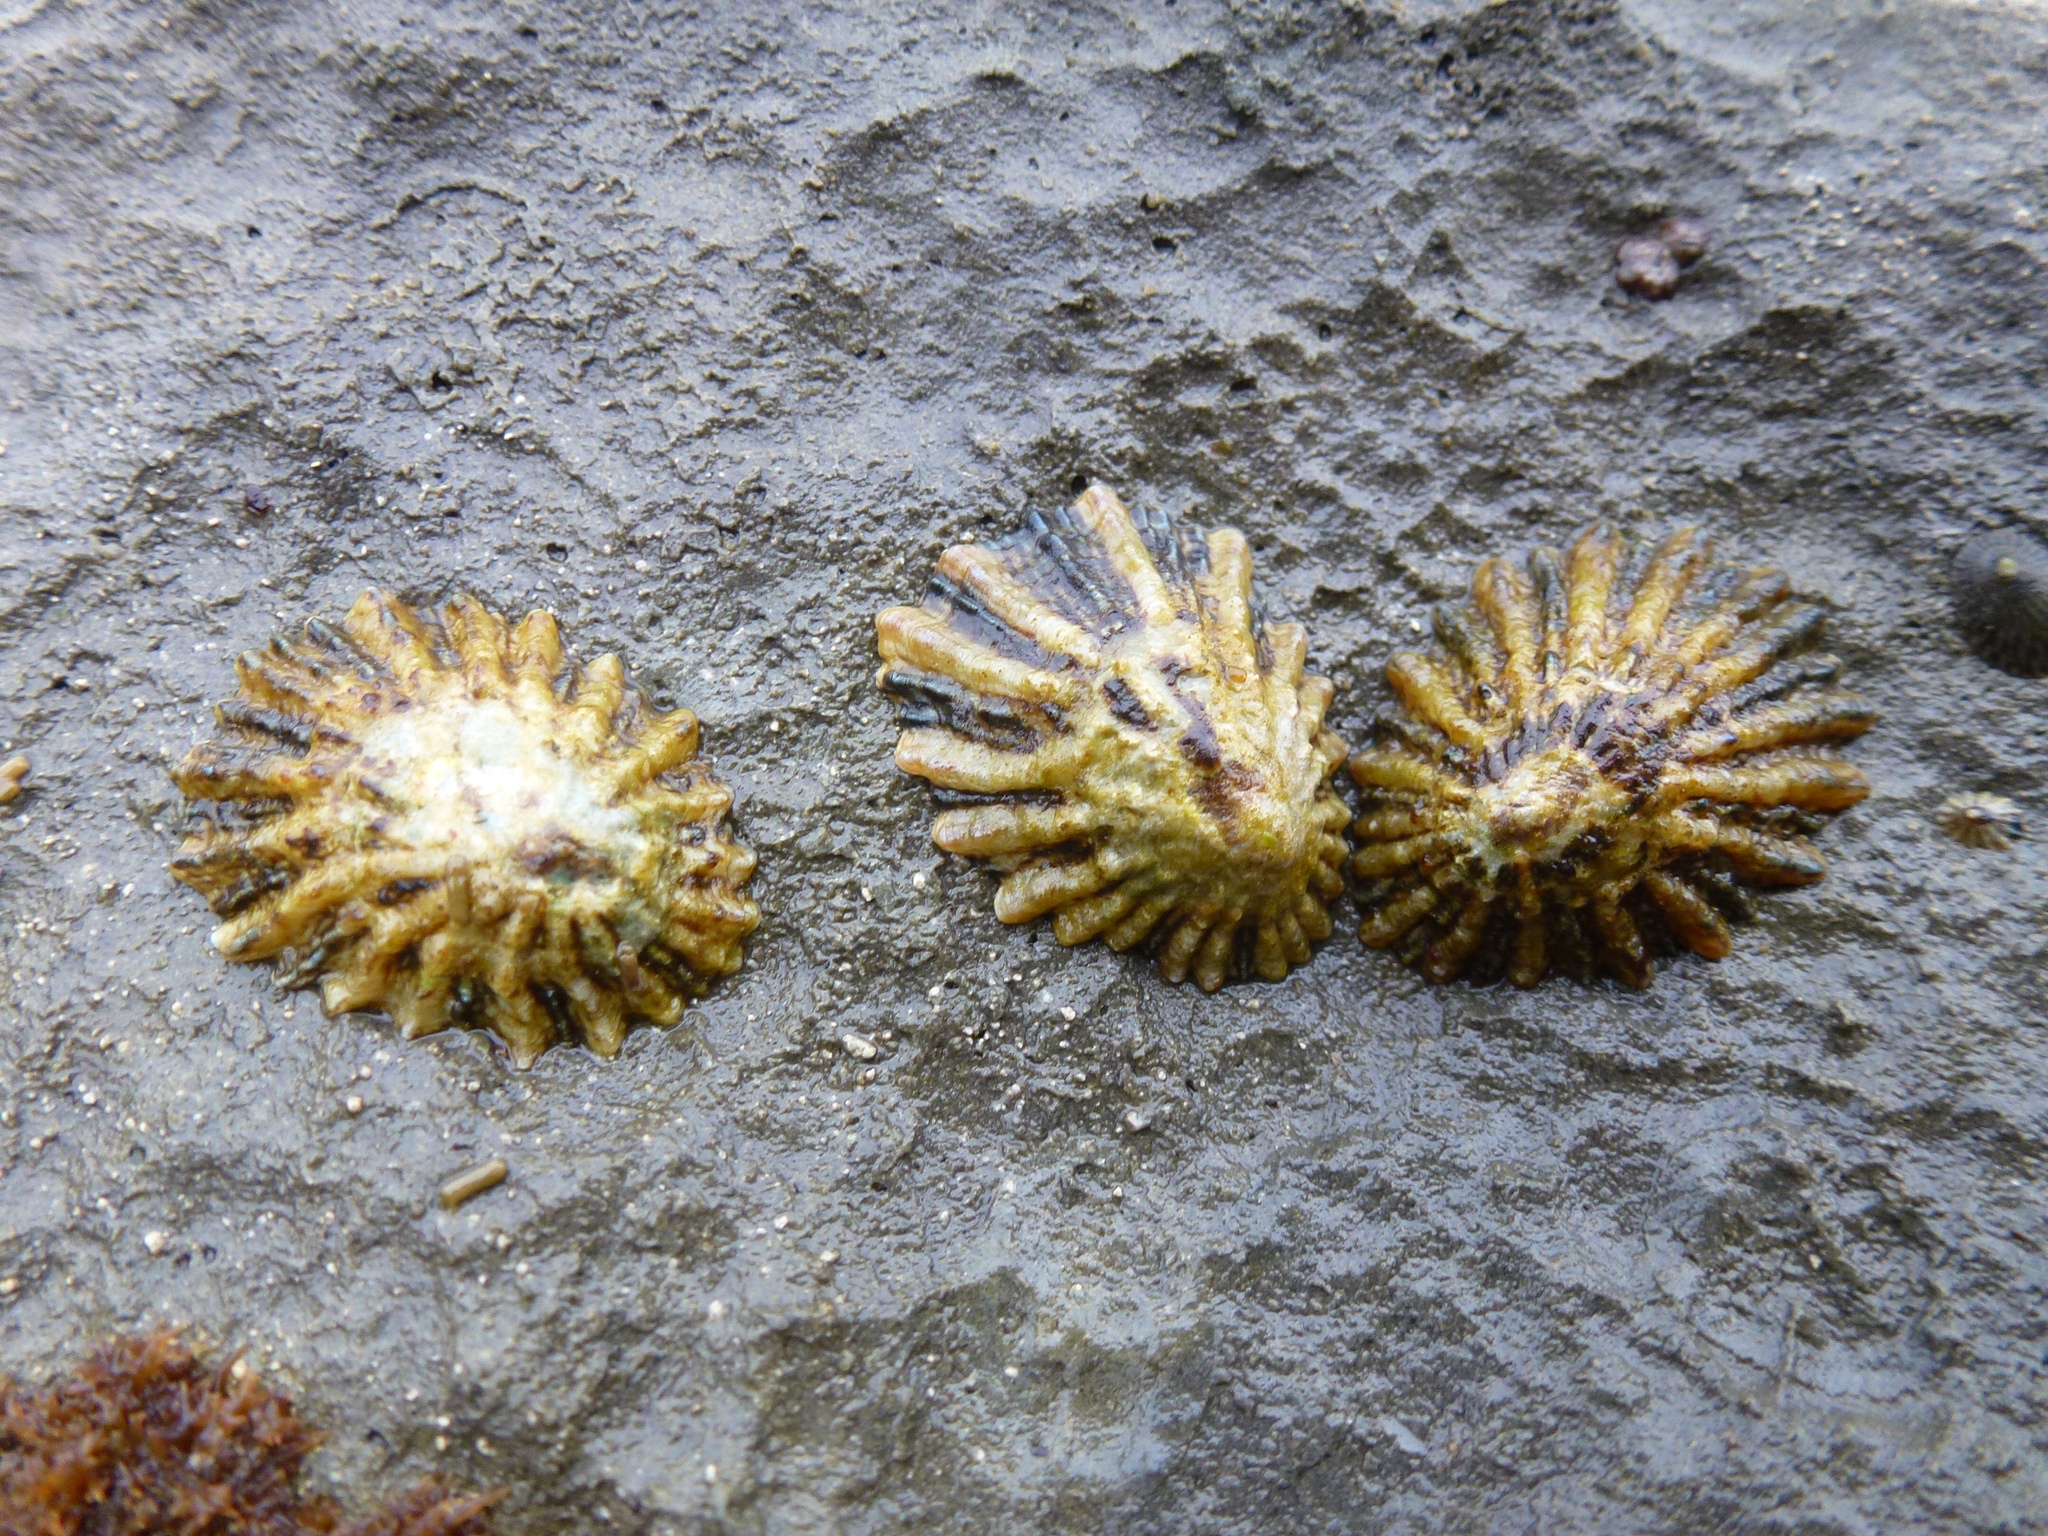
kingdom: Animalia
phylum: Mollusca
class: Gastropoda
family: Lottiidae
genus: Lottia
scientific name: Lottia scabra
